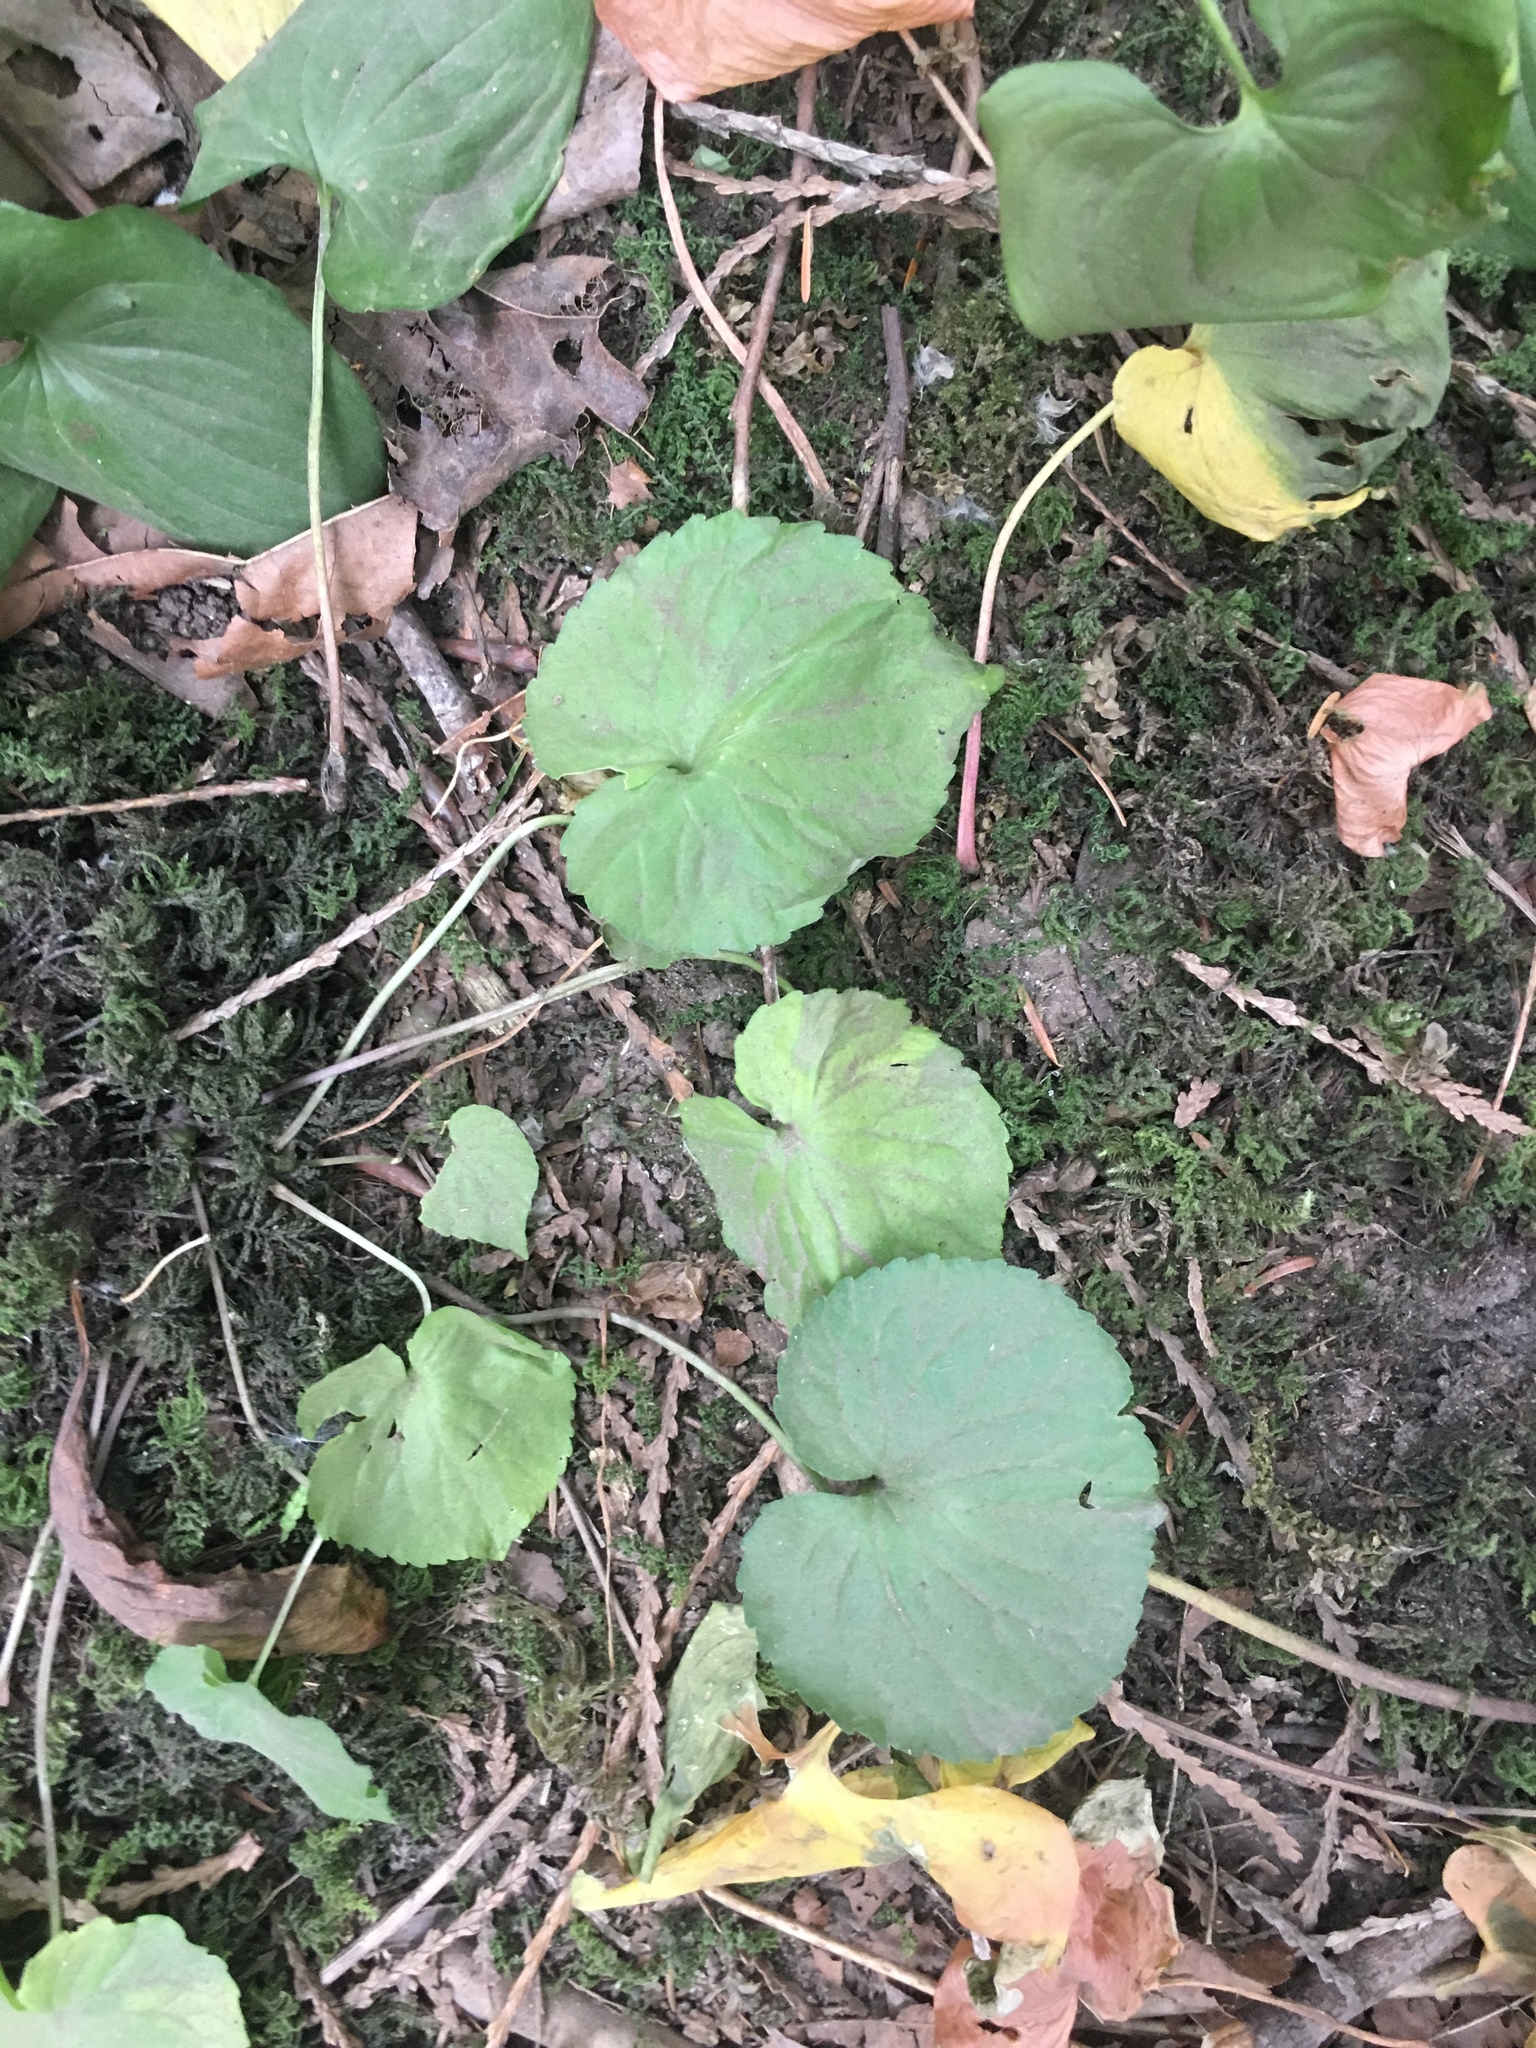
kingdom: Plantae
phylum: Tracheophyta
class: Magnoliopsida
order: Malpighiales
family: Violaceae
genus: Viola
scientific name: Viola glabella
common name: Stream violet
